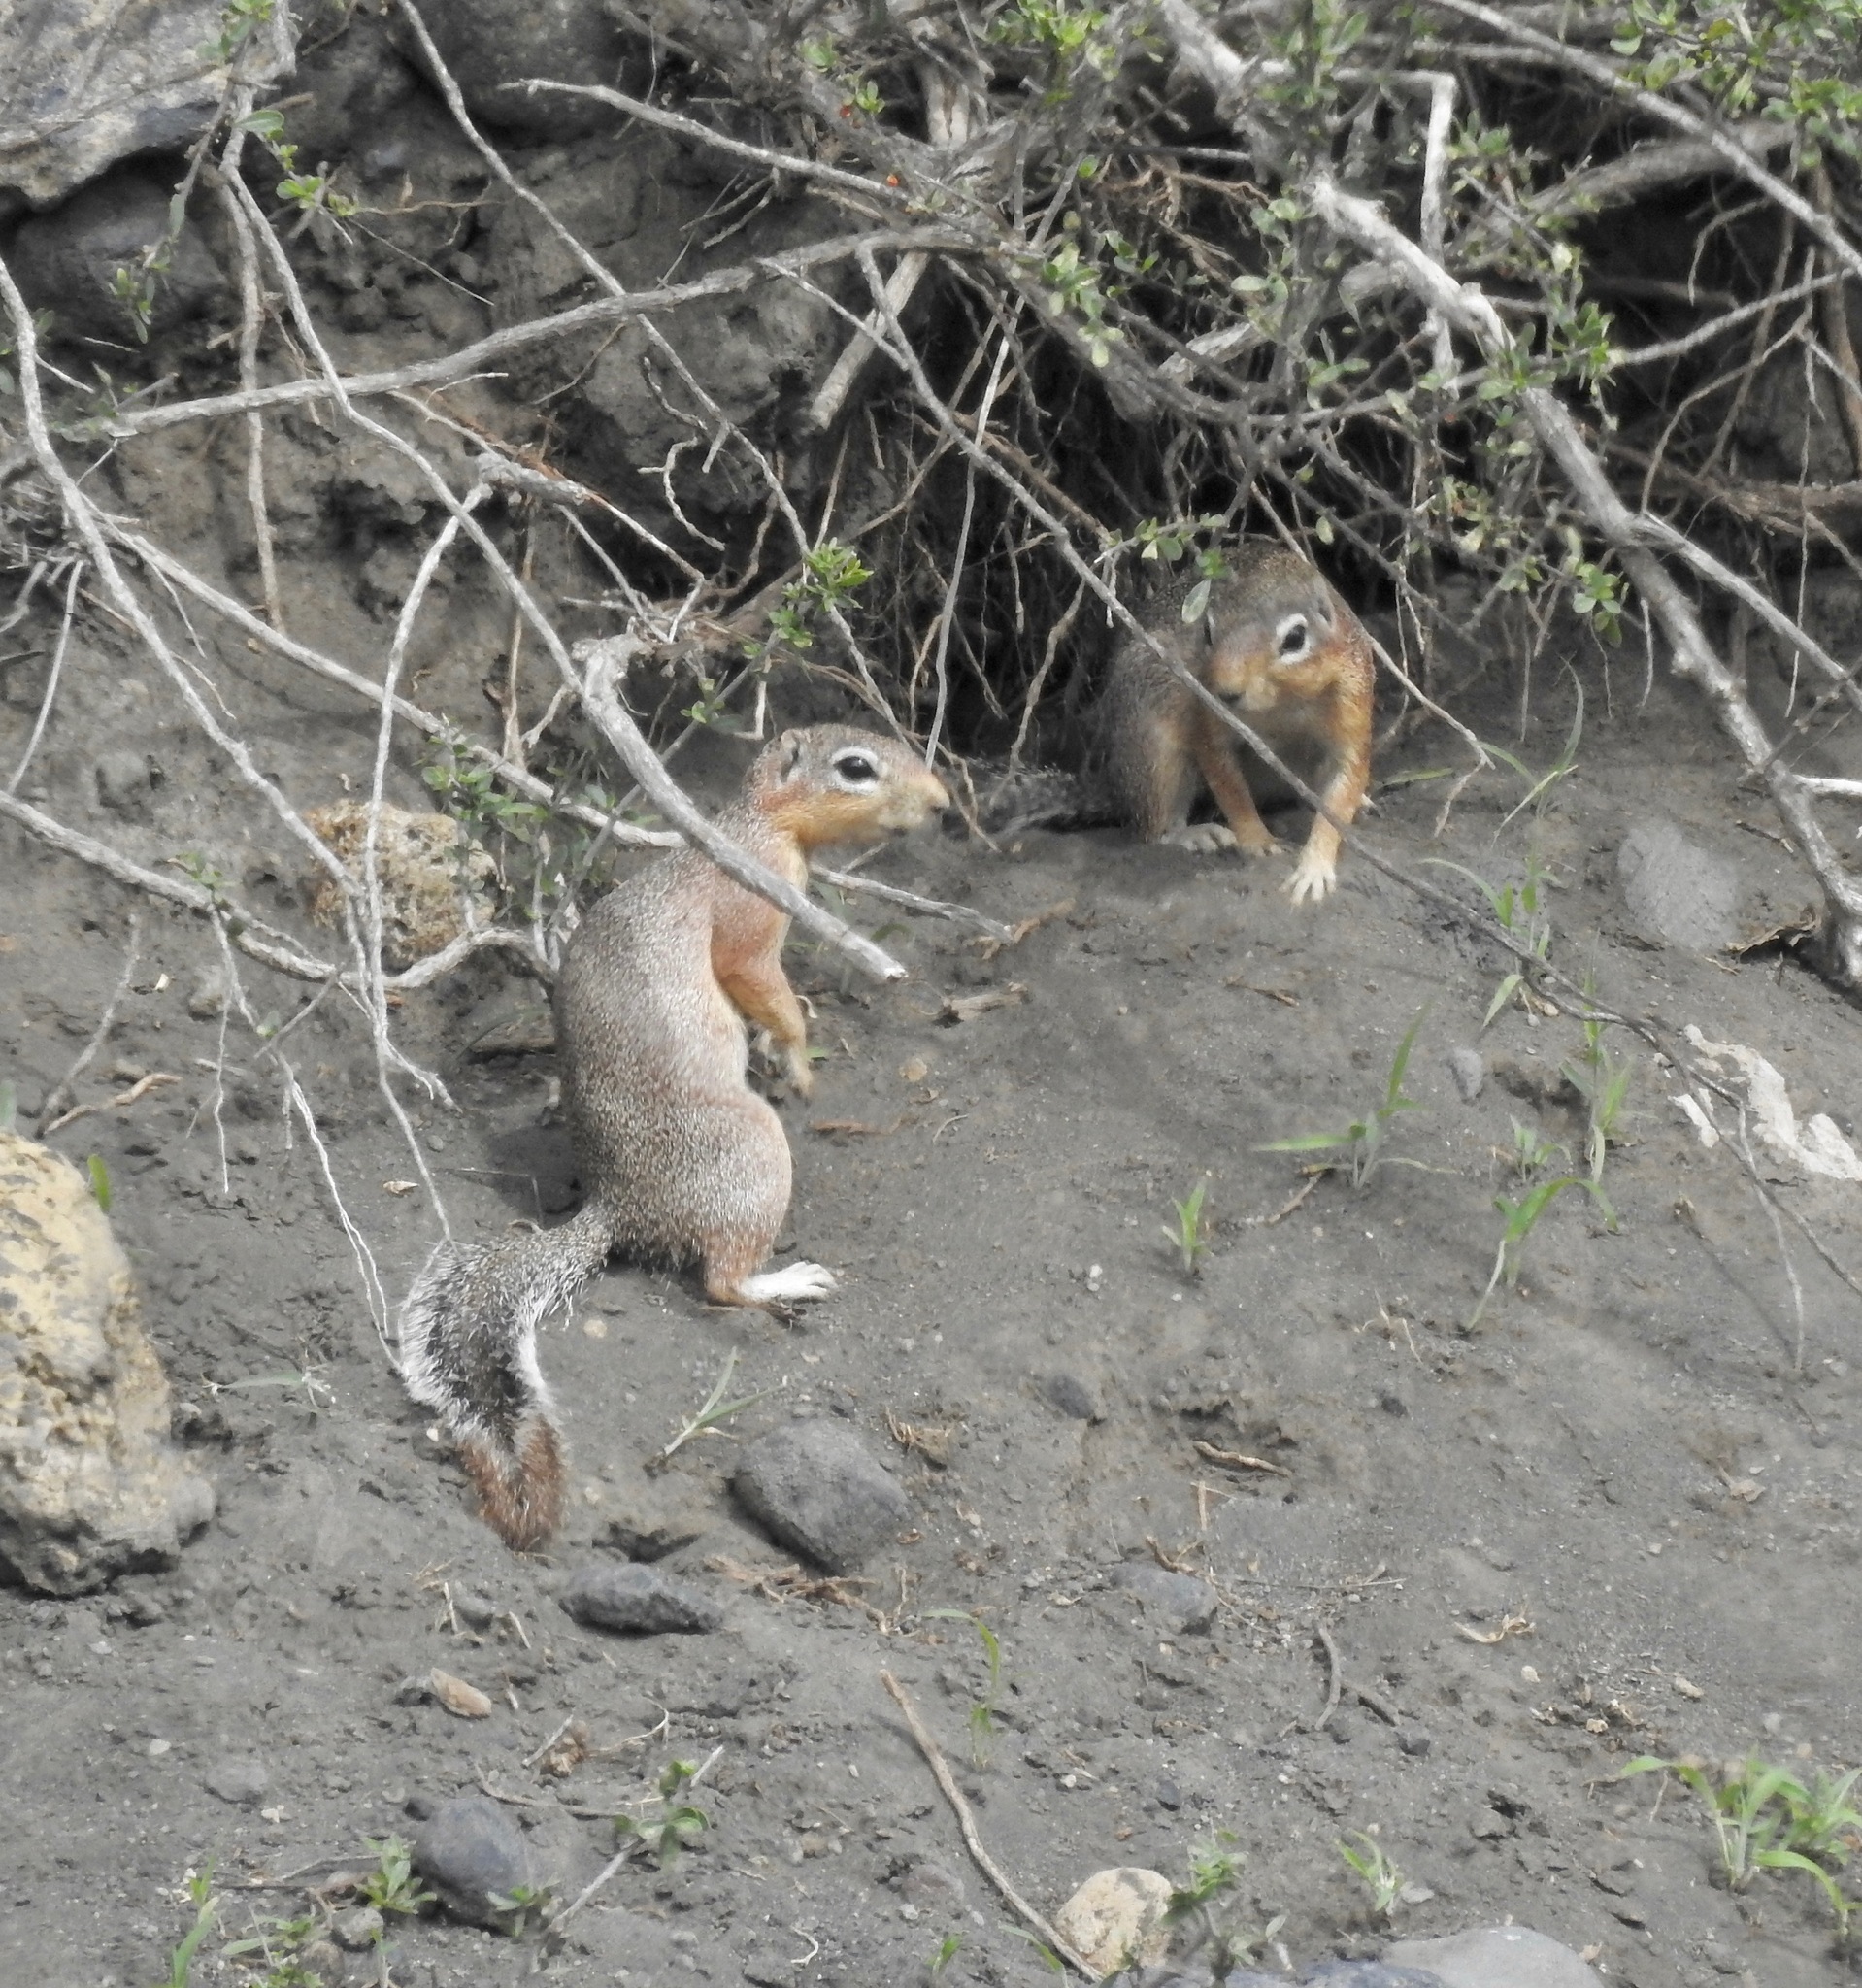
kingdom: Animalia
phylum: Chordata
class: Mammalia
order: Rodentia
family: Sciuridae
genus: Xerus
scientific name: Xerus rutilus
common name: Unstriped ground squirrel
